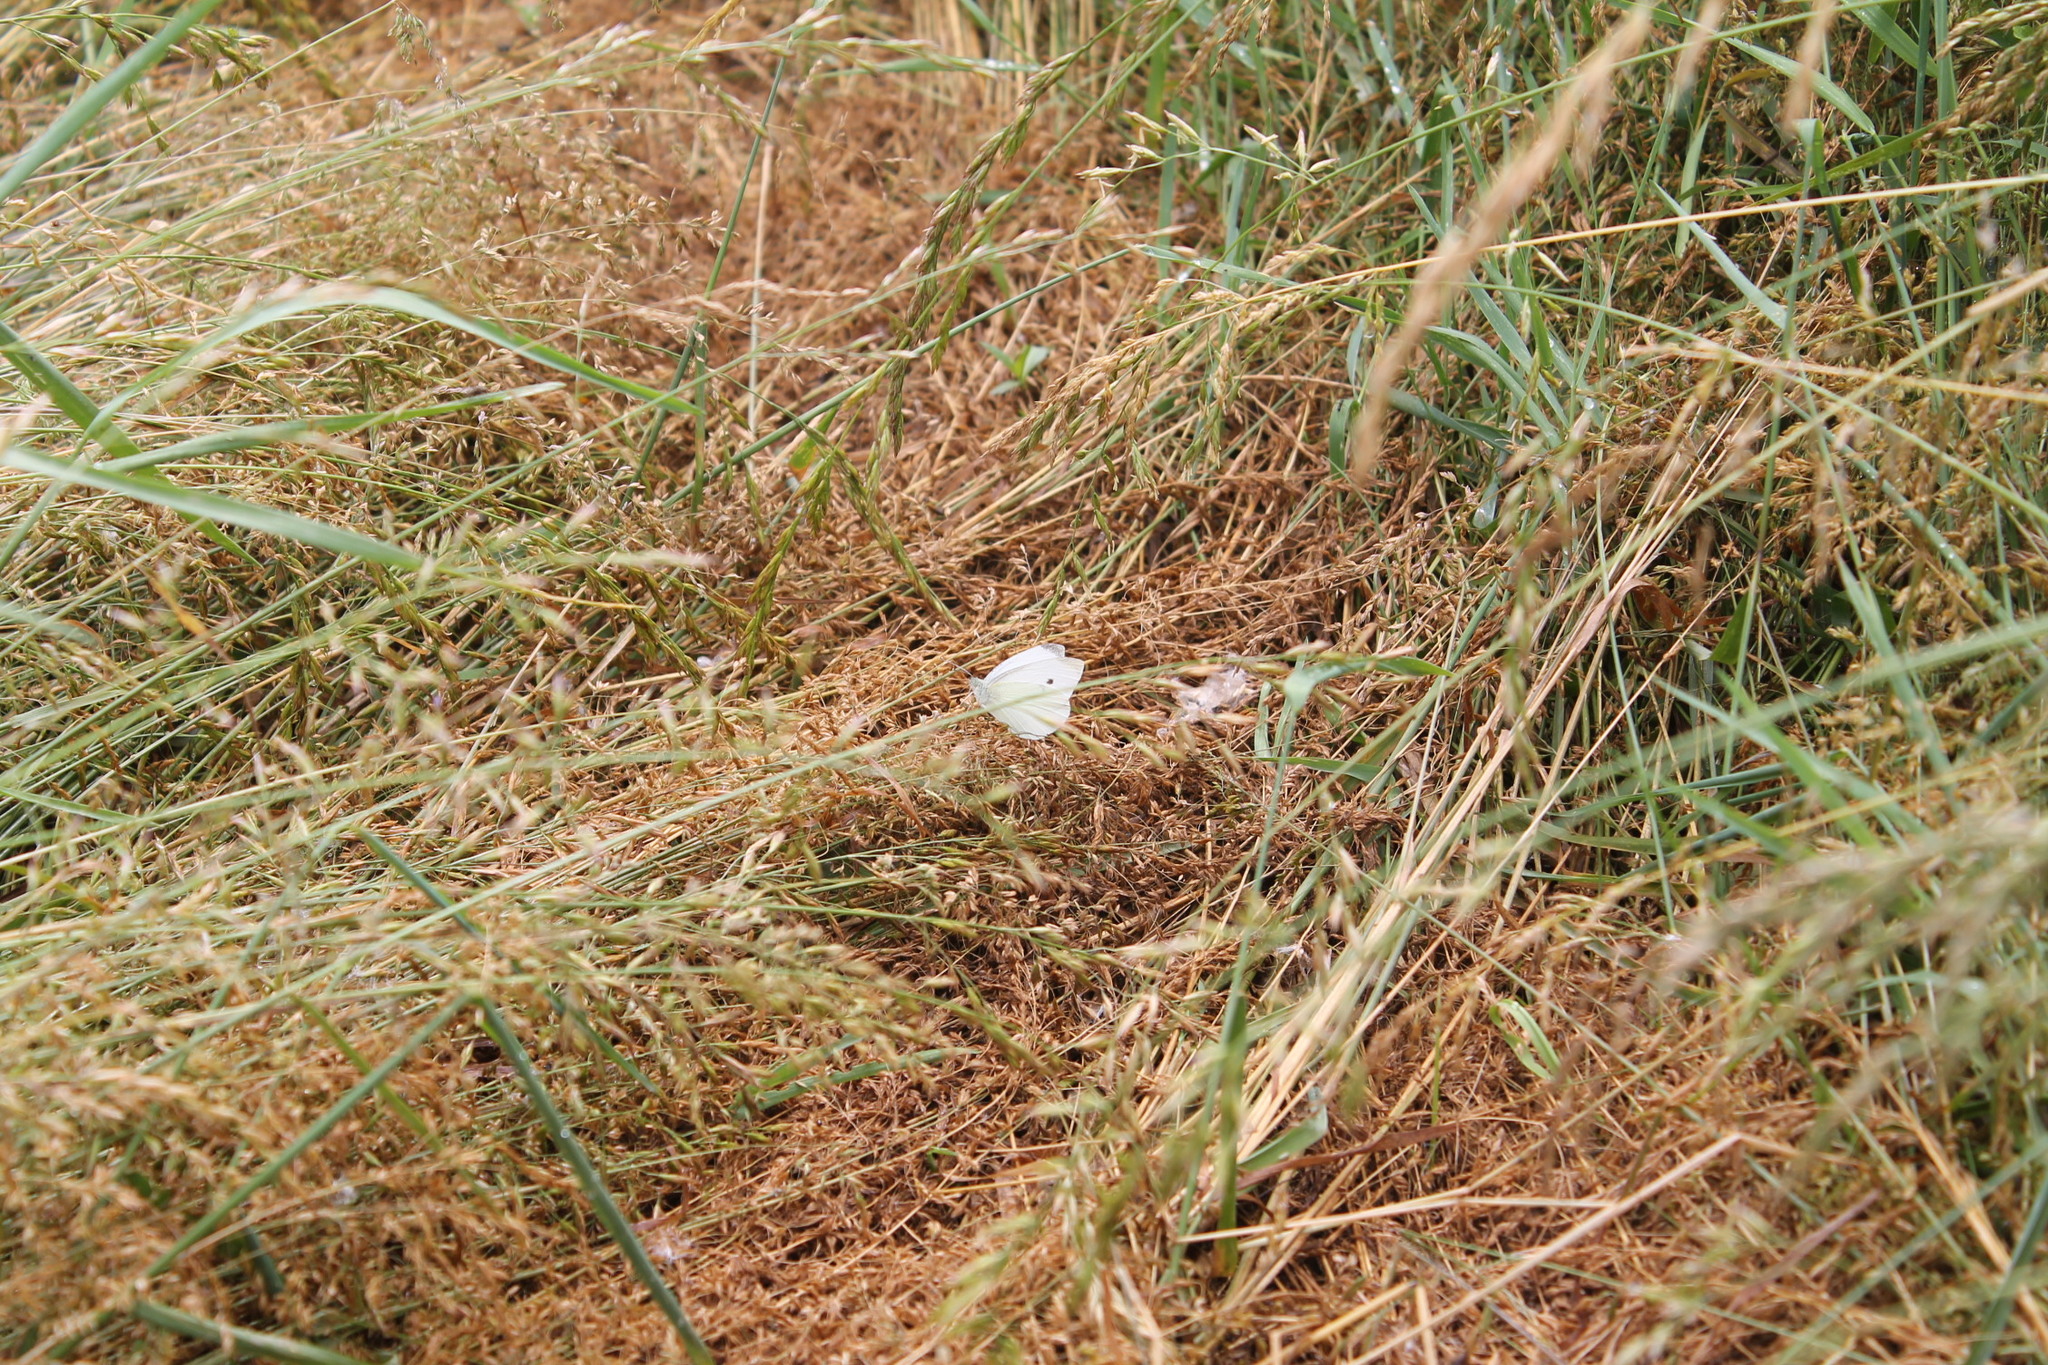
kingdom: Animalia
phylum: Arthropoda
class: Insecta
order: Lepidoptera
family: Pieridae
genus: Pieris
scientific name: Pieris rapae
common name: Small white
